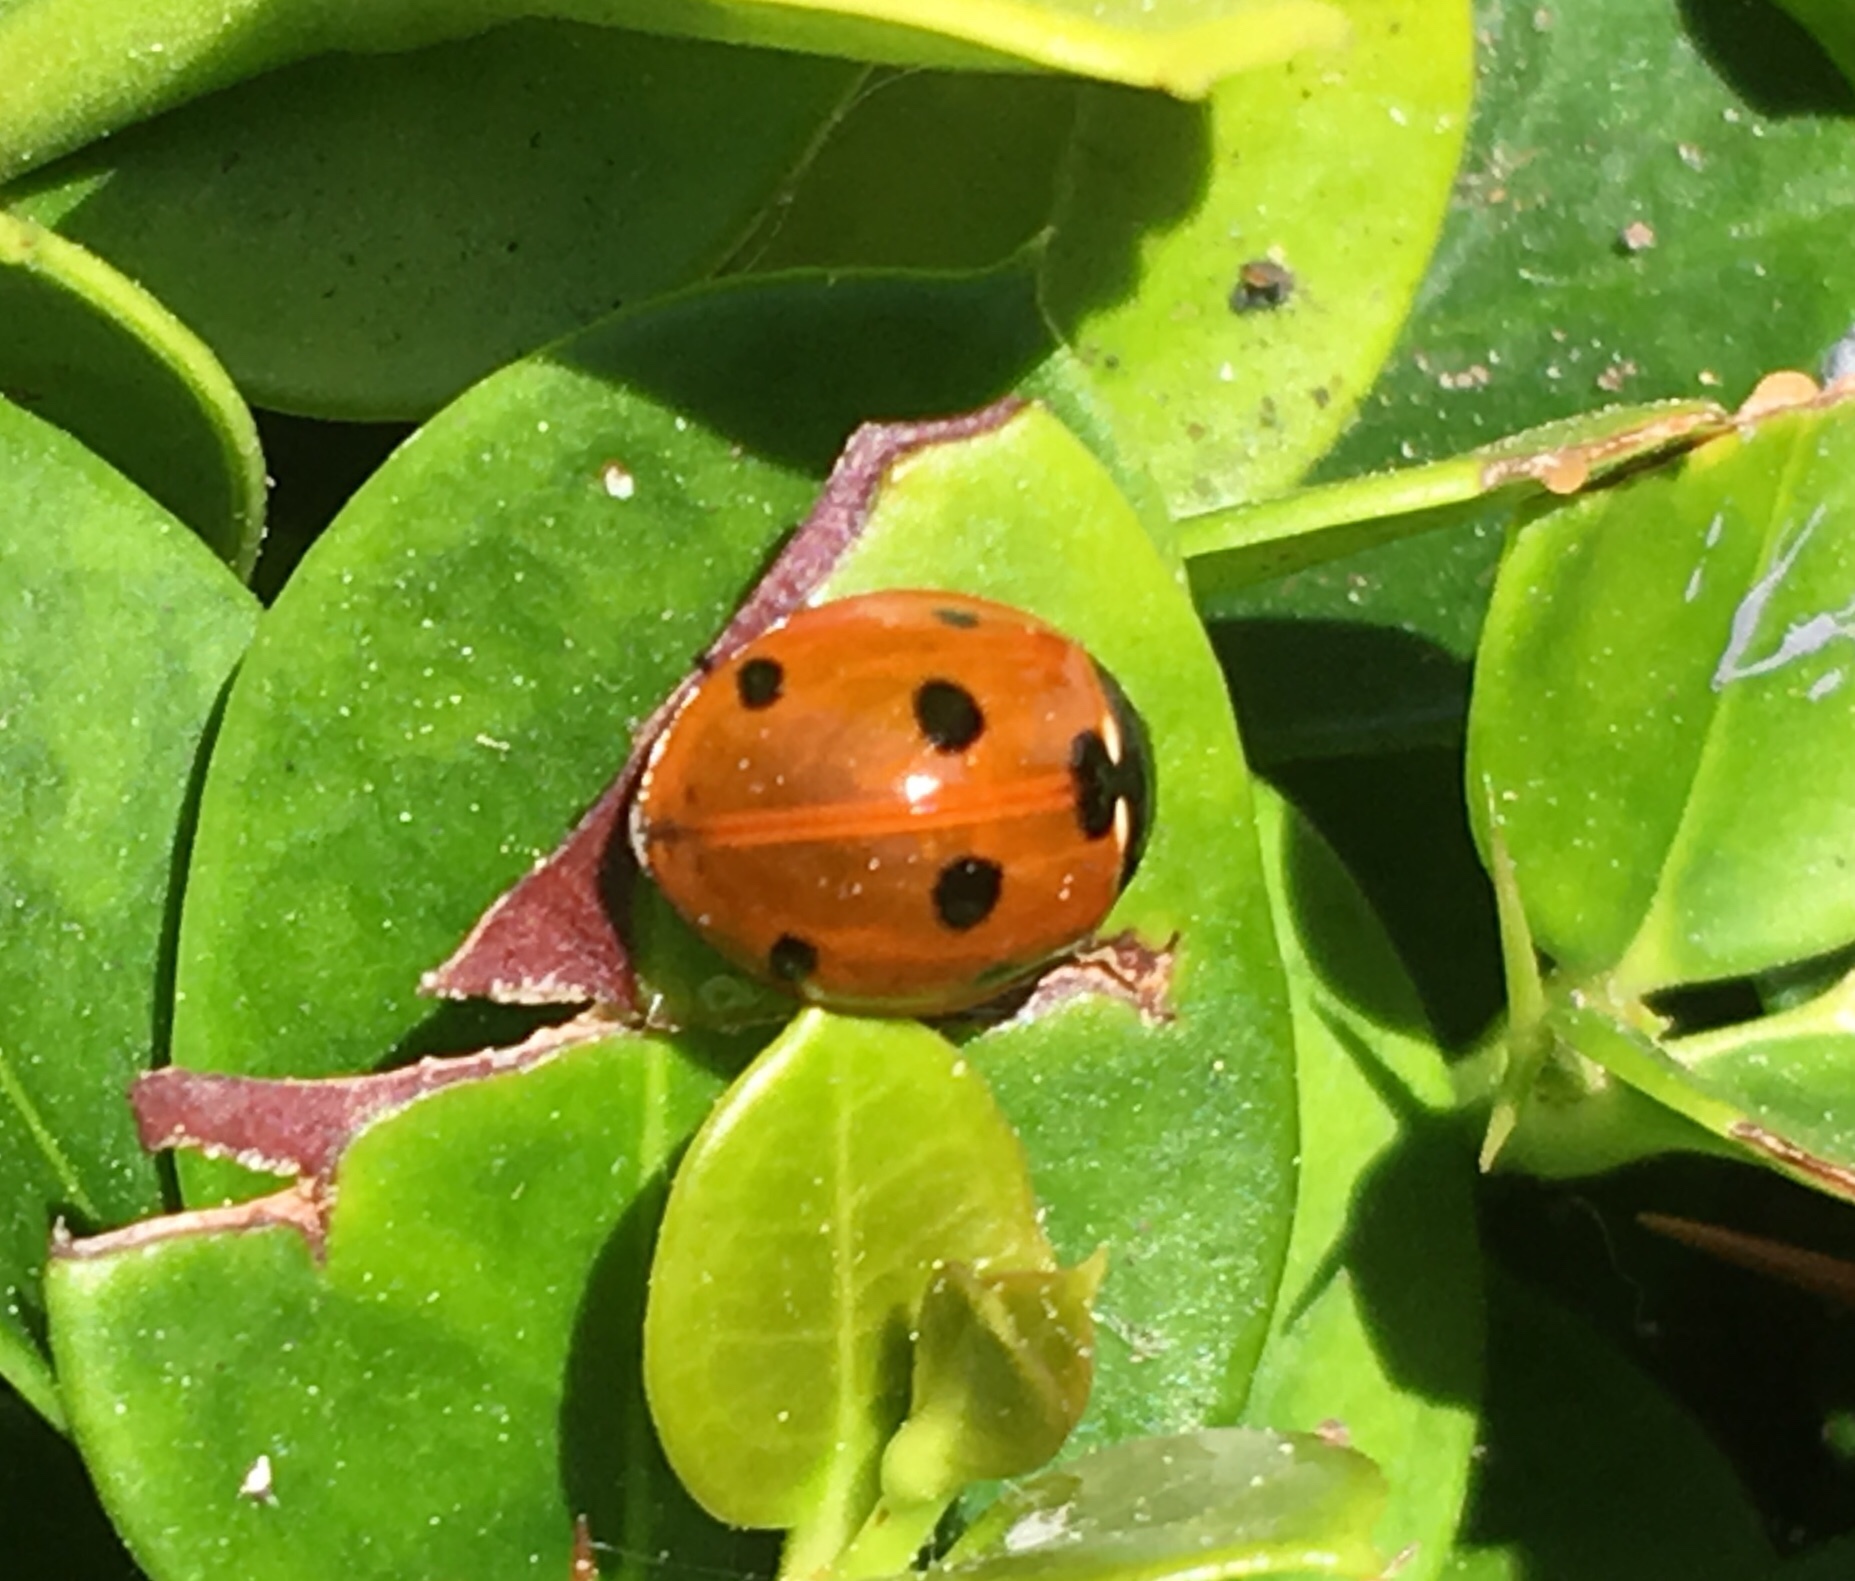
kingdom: Animalia
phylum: Arthropoda
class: Insecta
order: Coleoptera
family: Coccinellidae
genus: Coccinella
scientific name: Coccinella septempunctata
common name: Sevenspotted lady beetle
